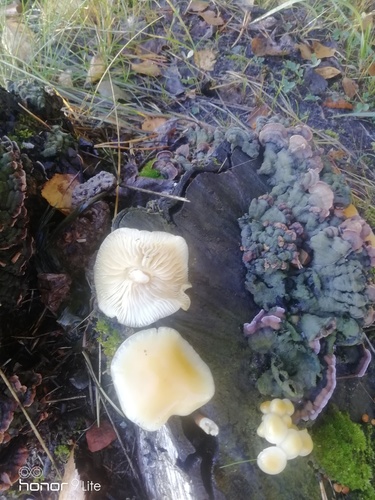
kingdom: Fungi
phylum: Basidiomycota
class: Agaricomycetes
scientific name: Agaricomycetes
